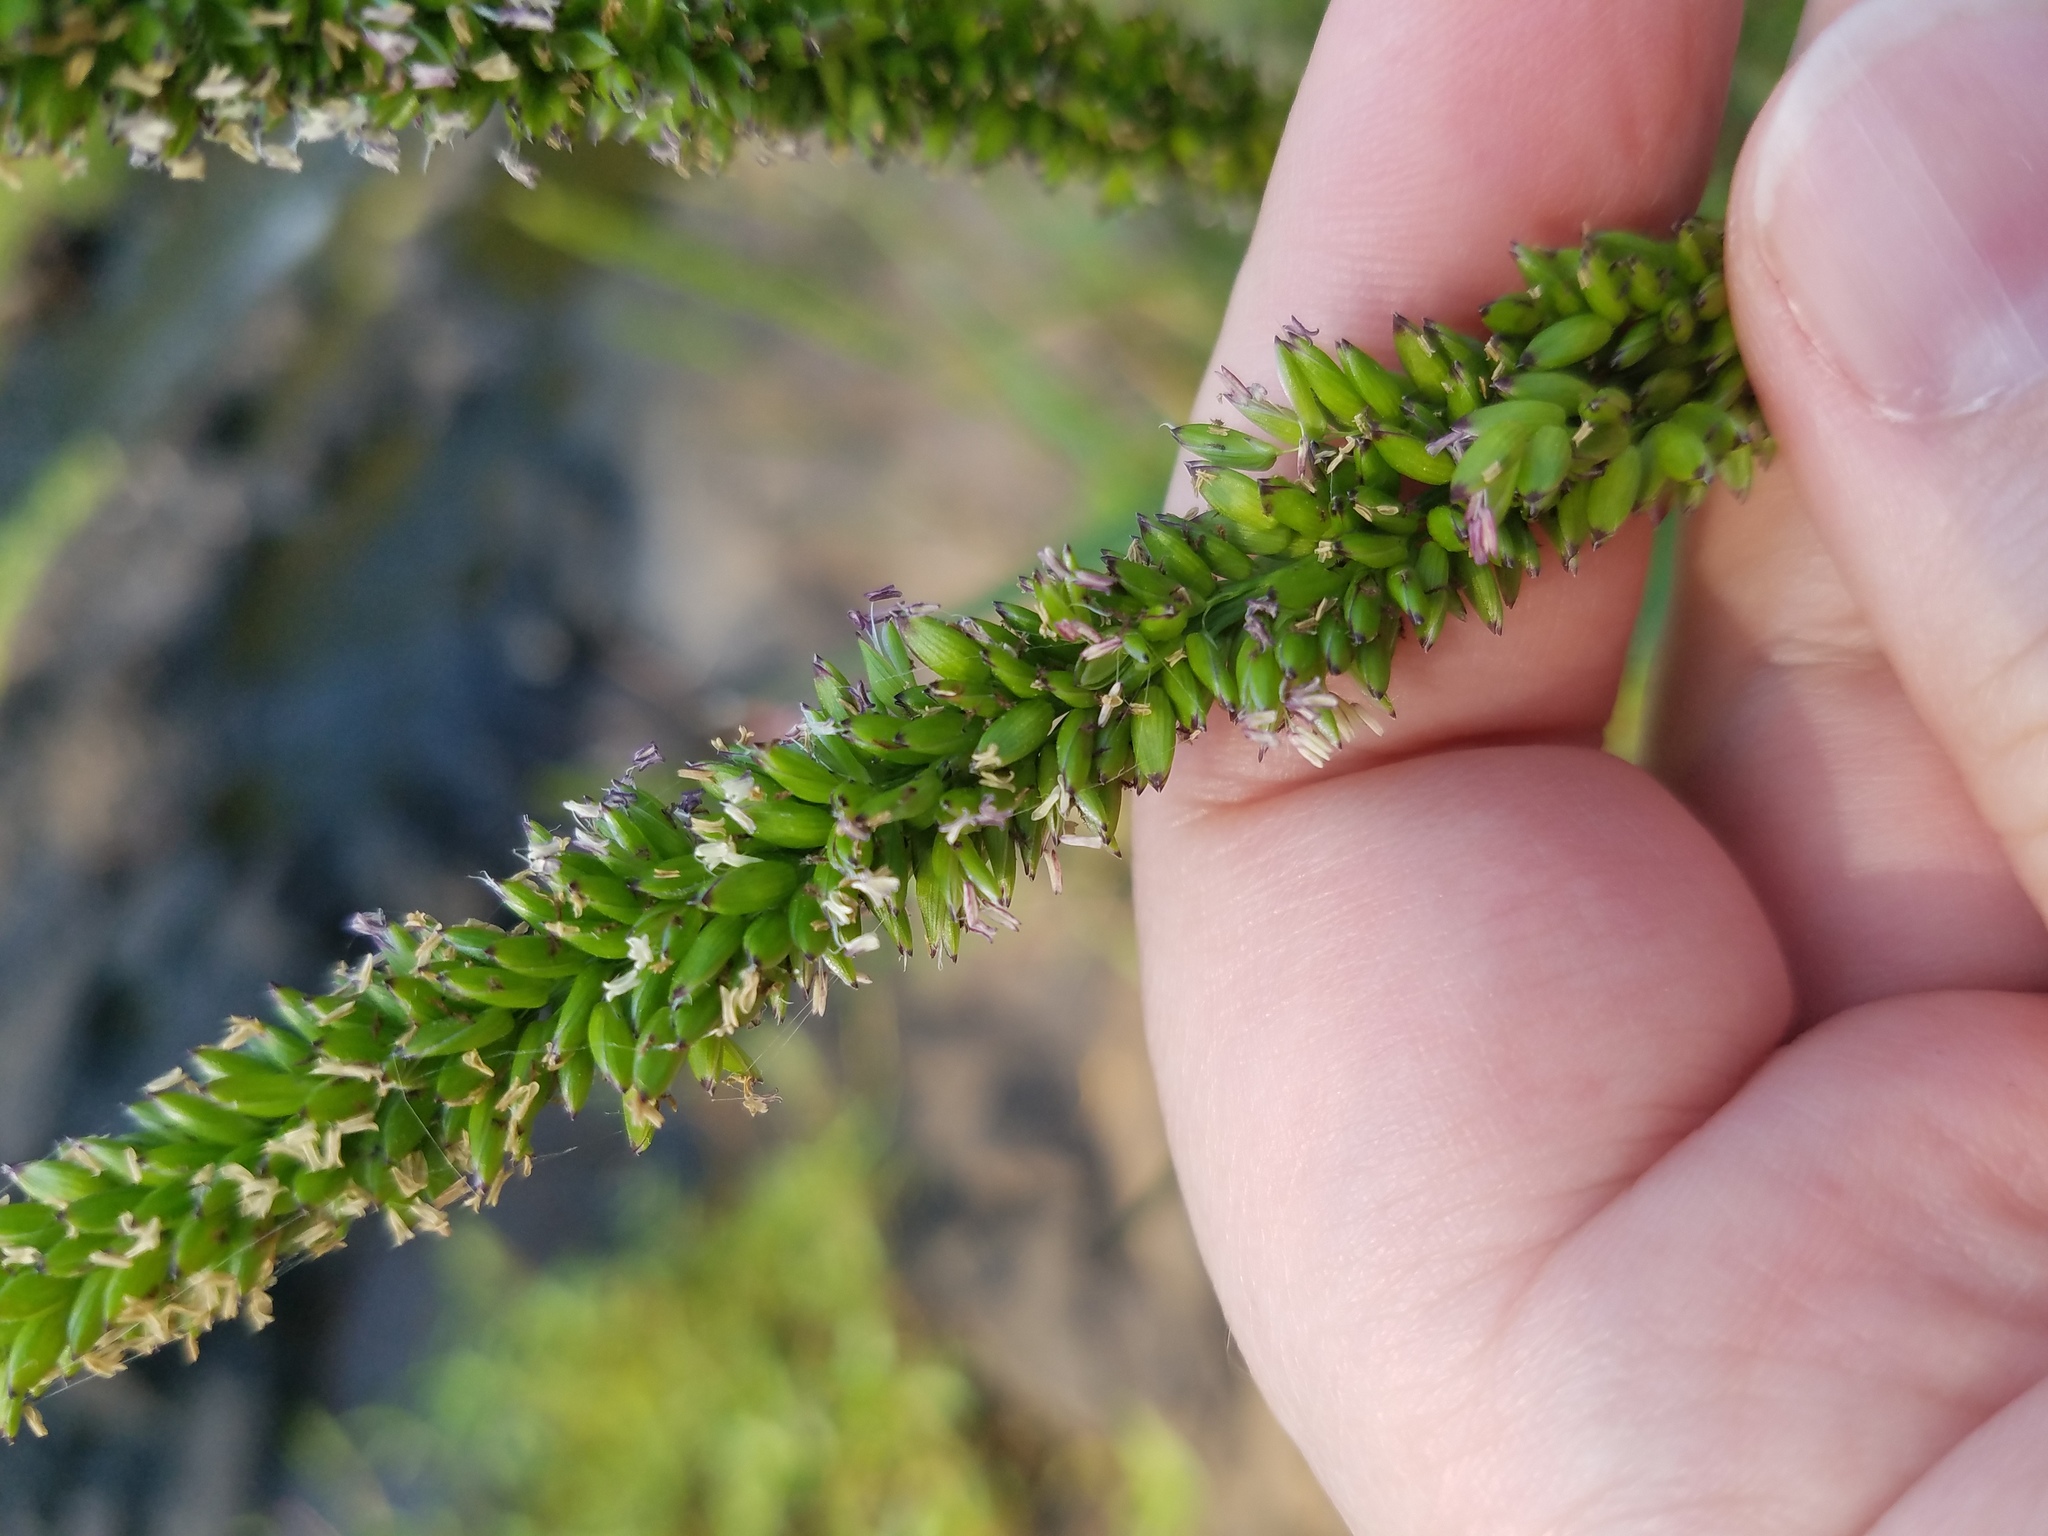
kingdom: Plantae
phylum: Tracheophyta
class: Liliopsida
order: Poales
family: Poaceae
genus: Sacciolepis
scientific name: Sacciolepis striata
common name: American cupscale
